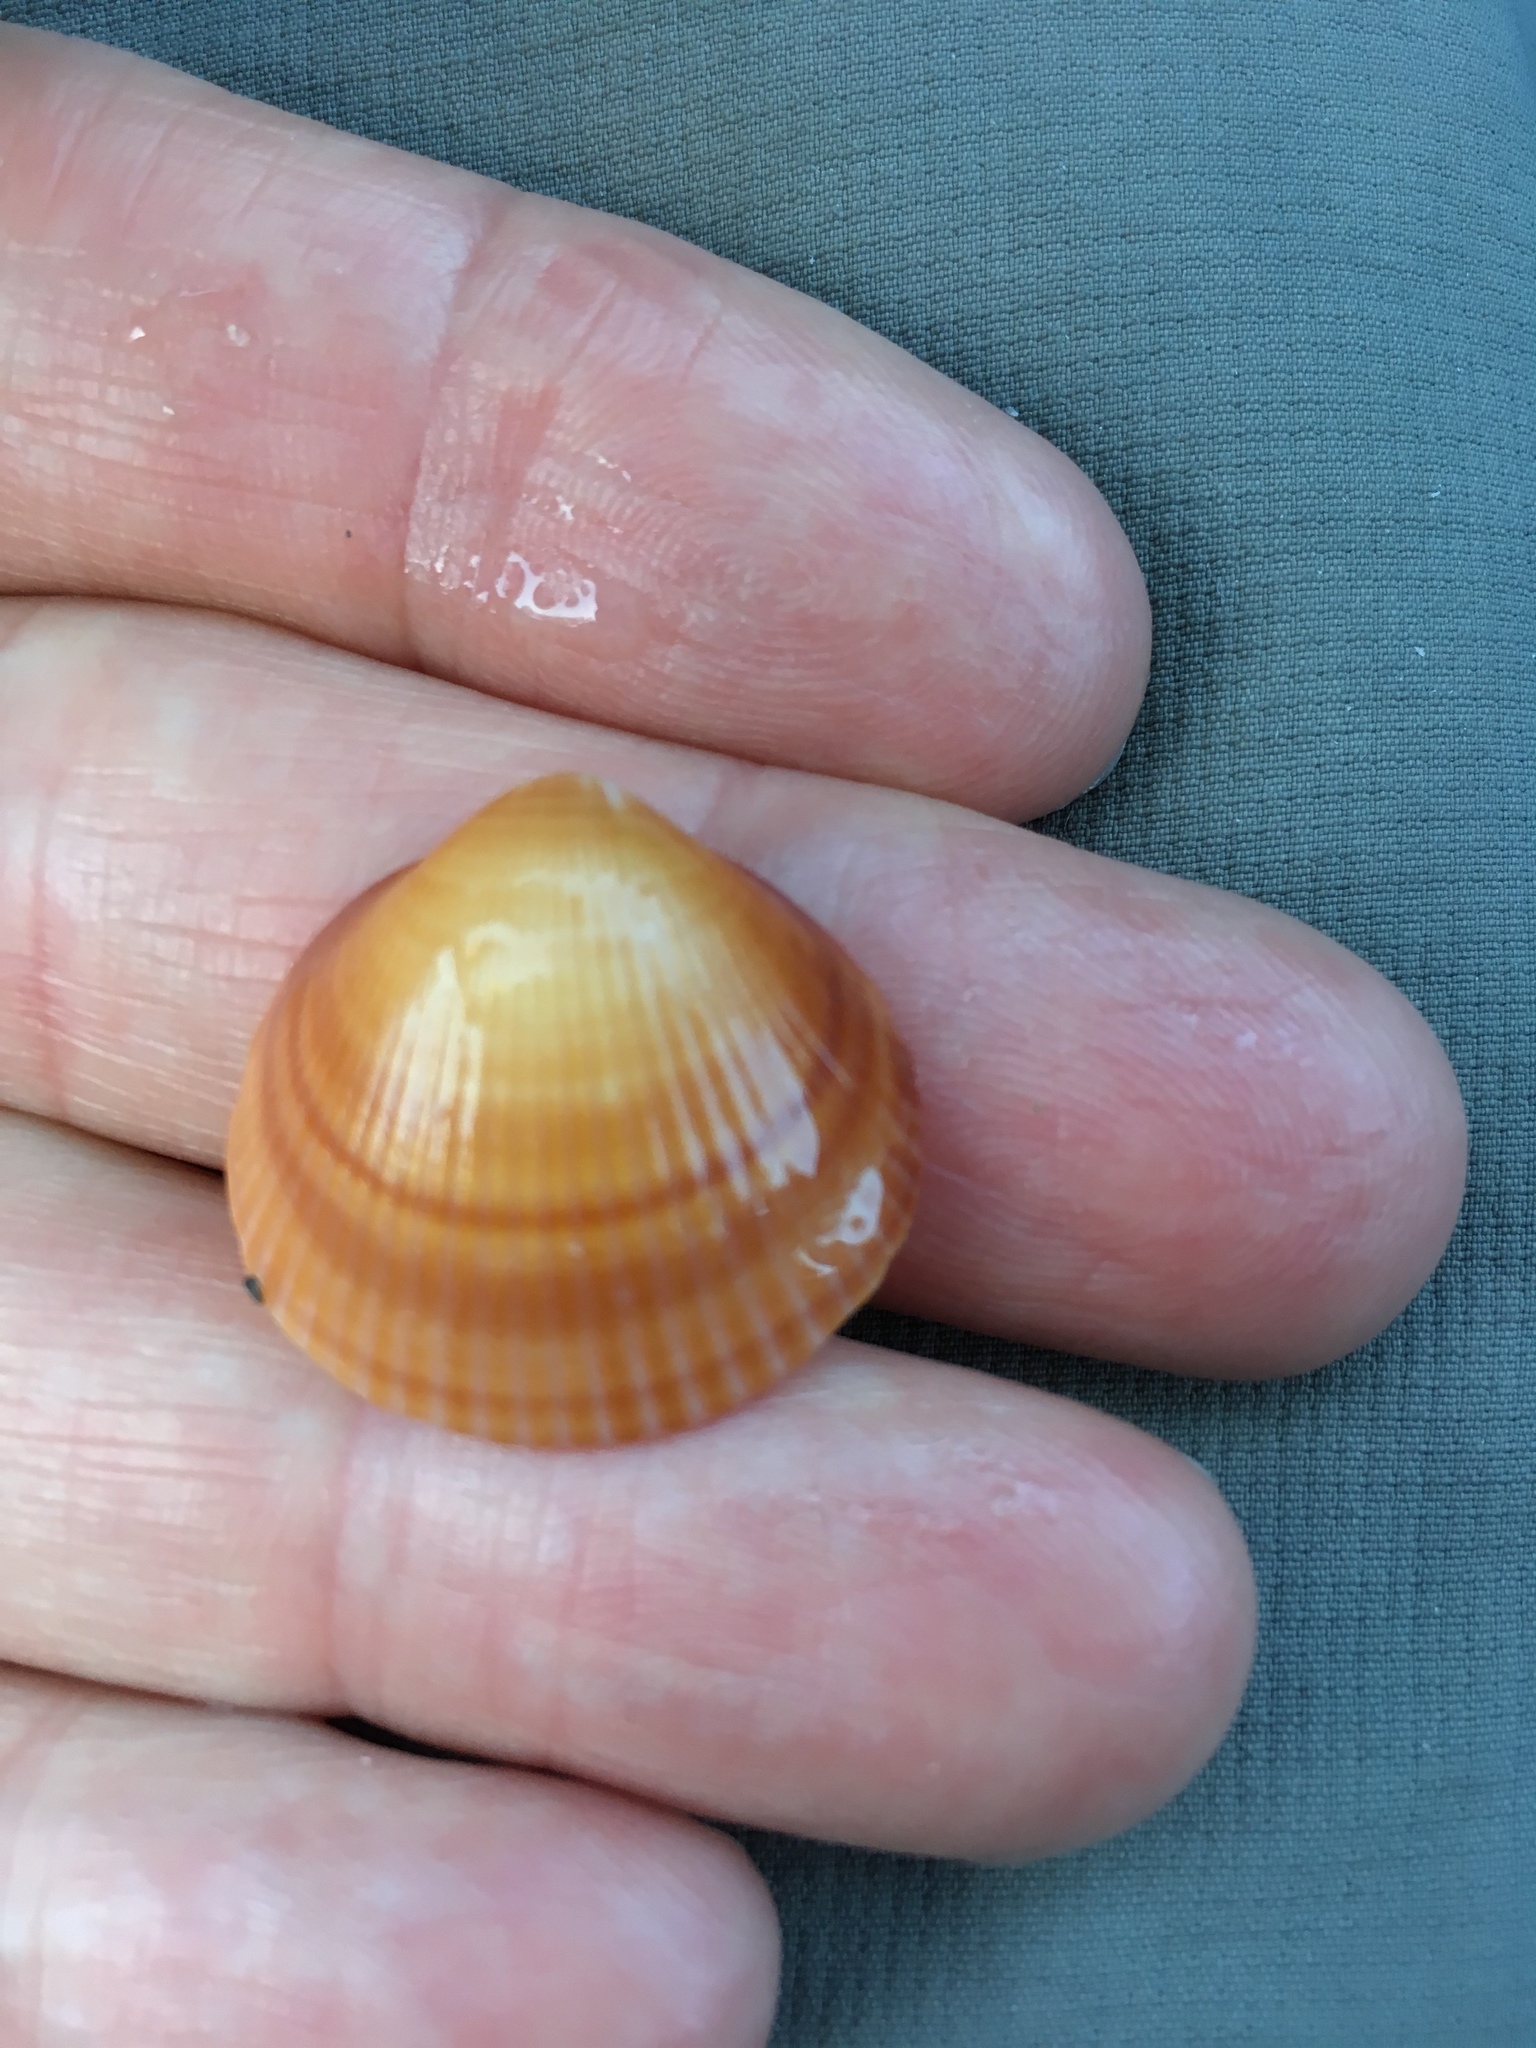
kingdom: Animalia
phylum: Mollusca
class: Bivalvia
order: Arcida
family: Glycymerididae
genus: Glycymeris
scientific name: Glycymeris spectralis
